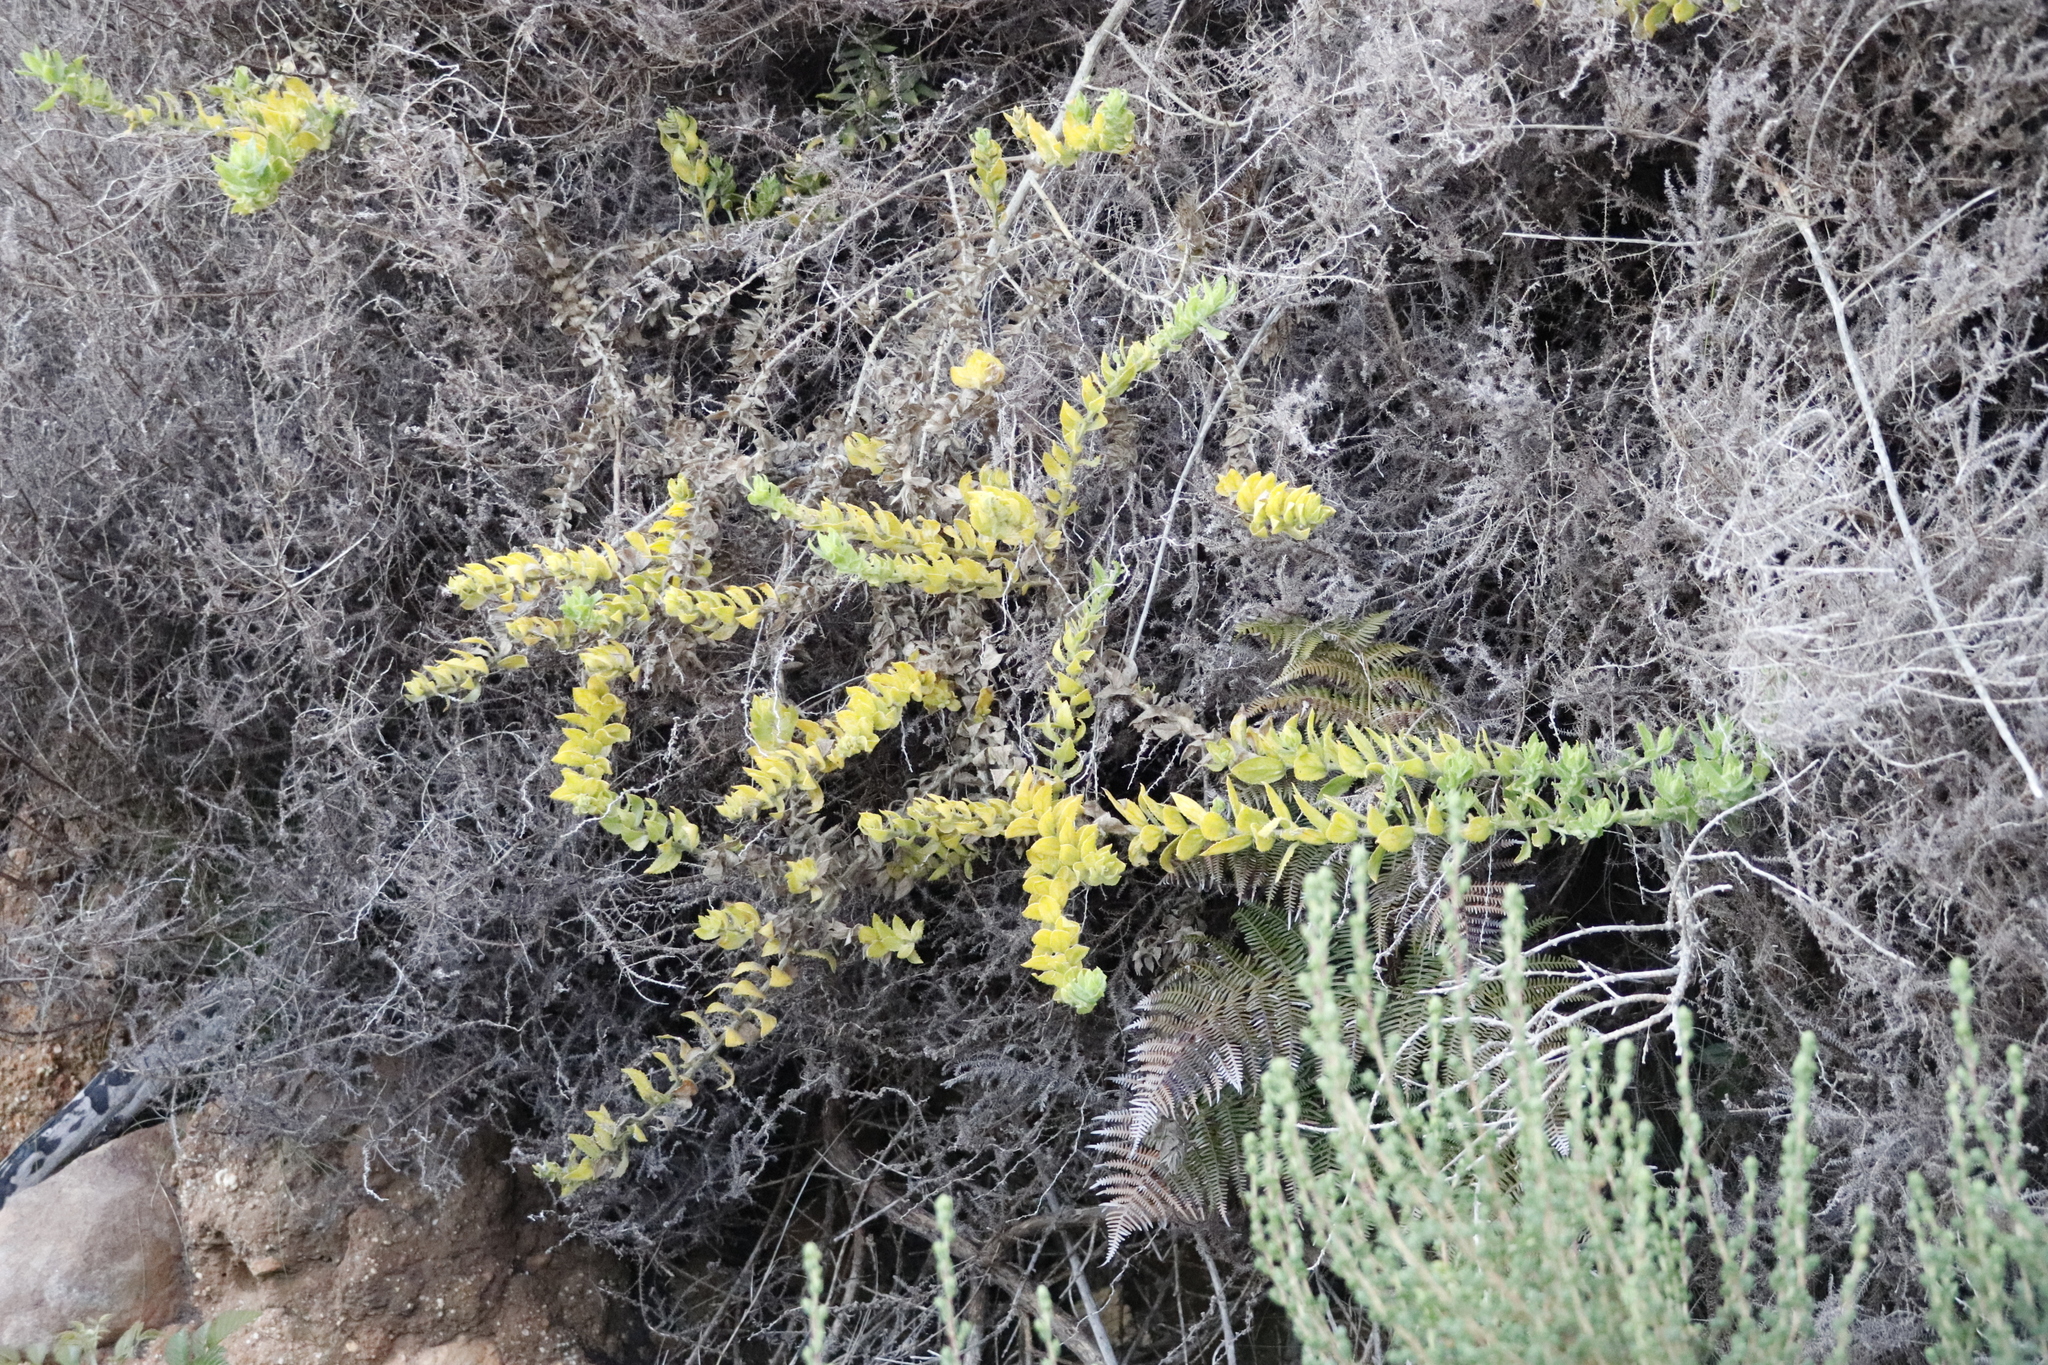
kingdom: Plantae
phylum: Tracheophyta
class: Magnoliopsida
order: Lamiales
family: Scrophulariaceae
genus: Oftia
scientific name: Oftia africana
